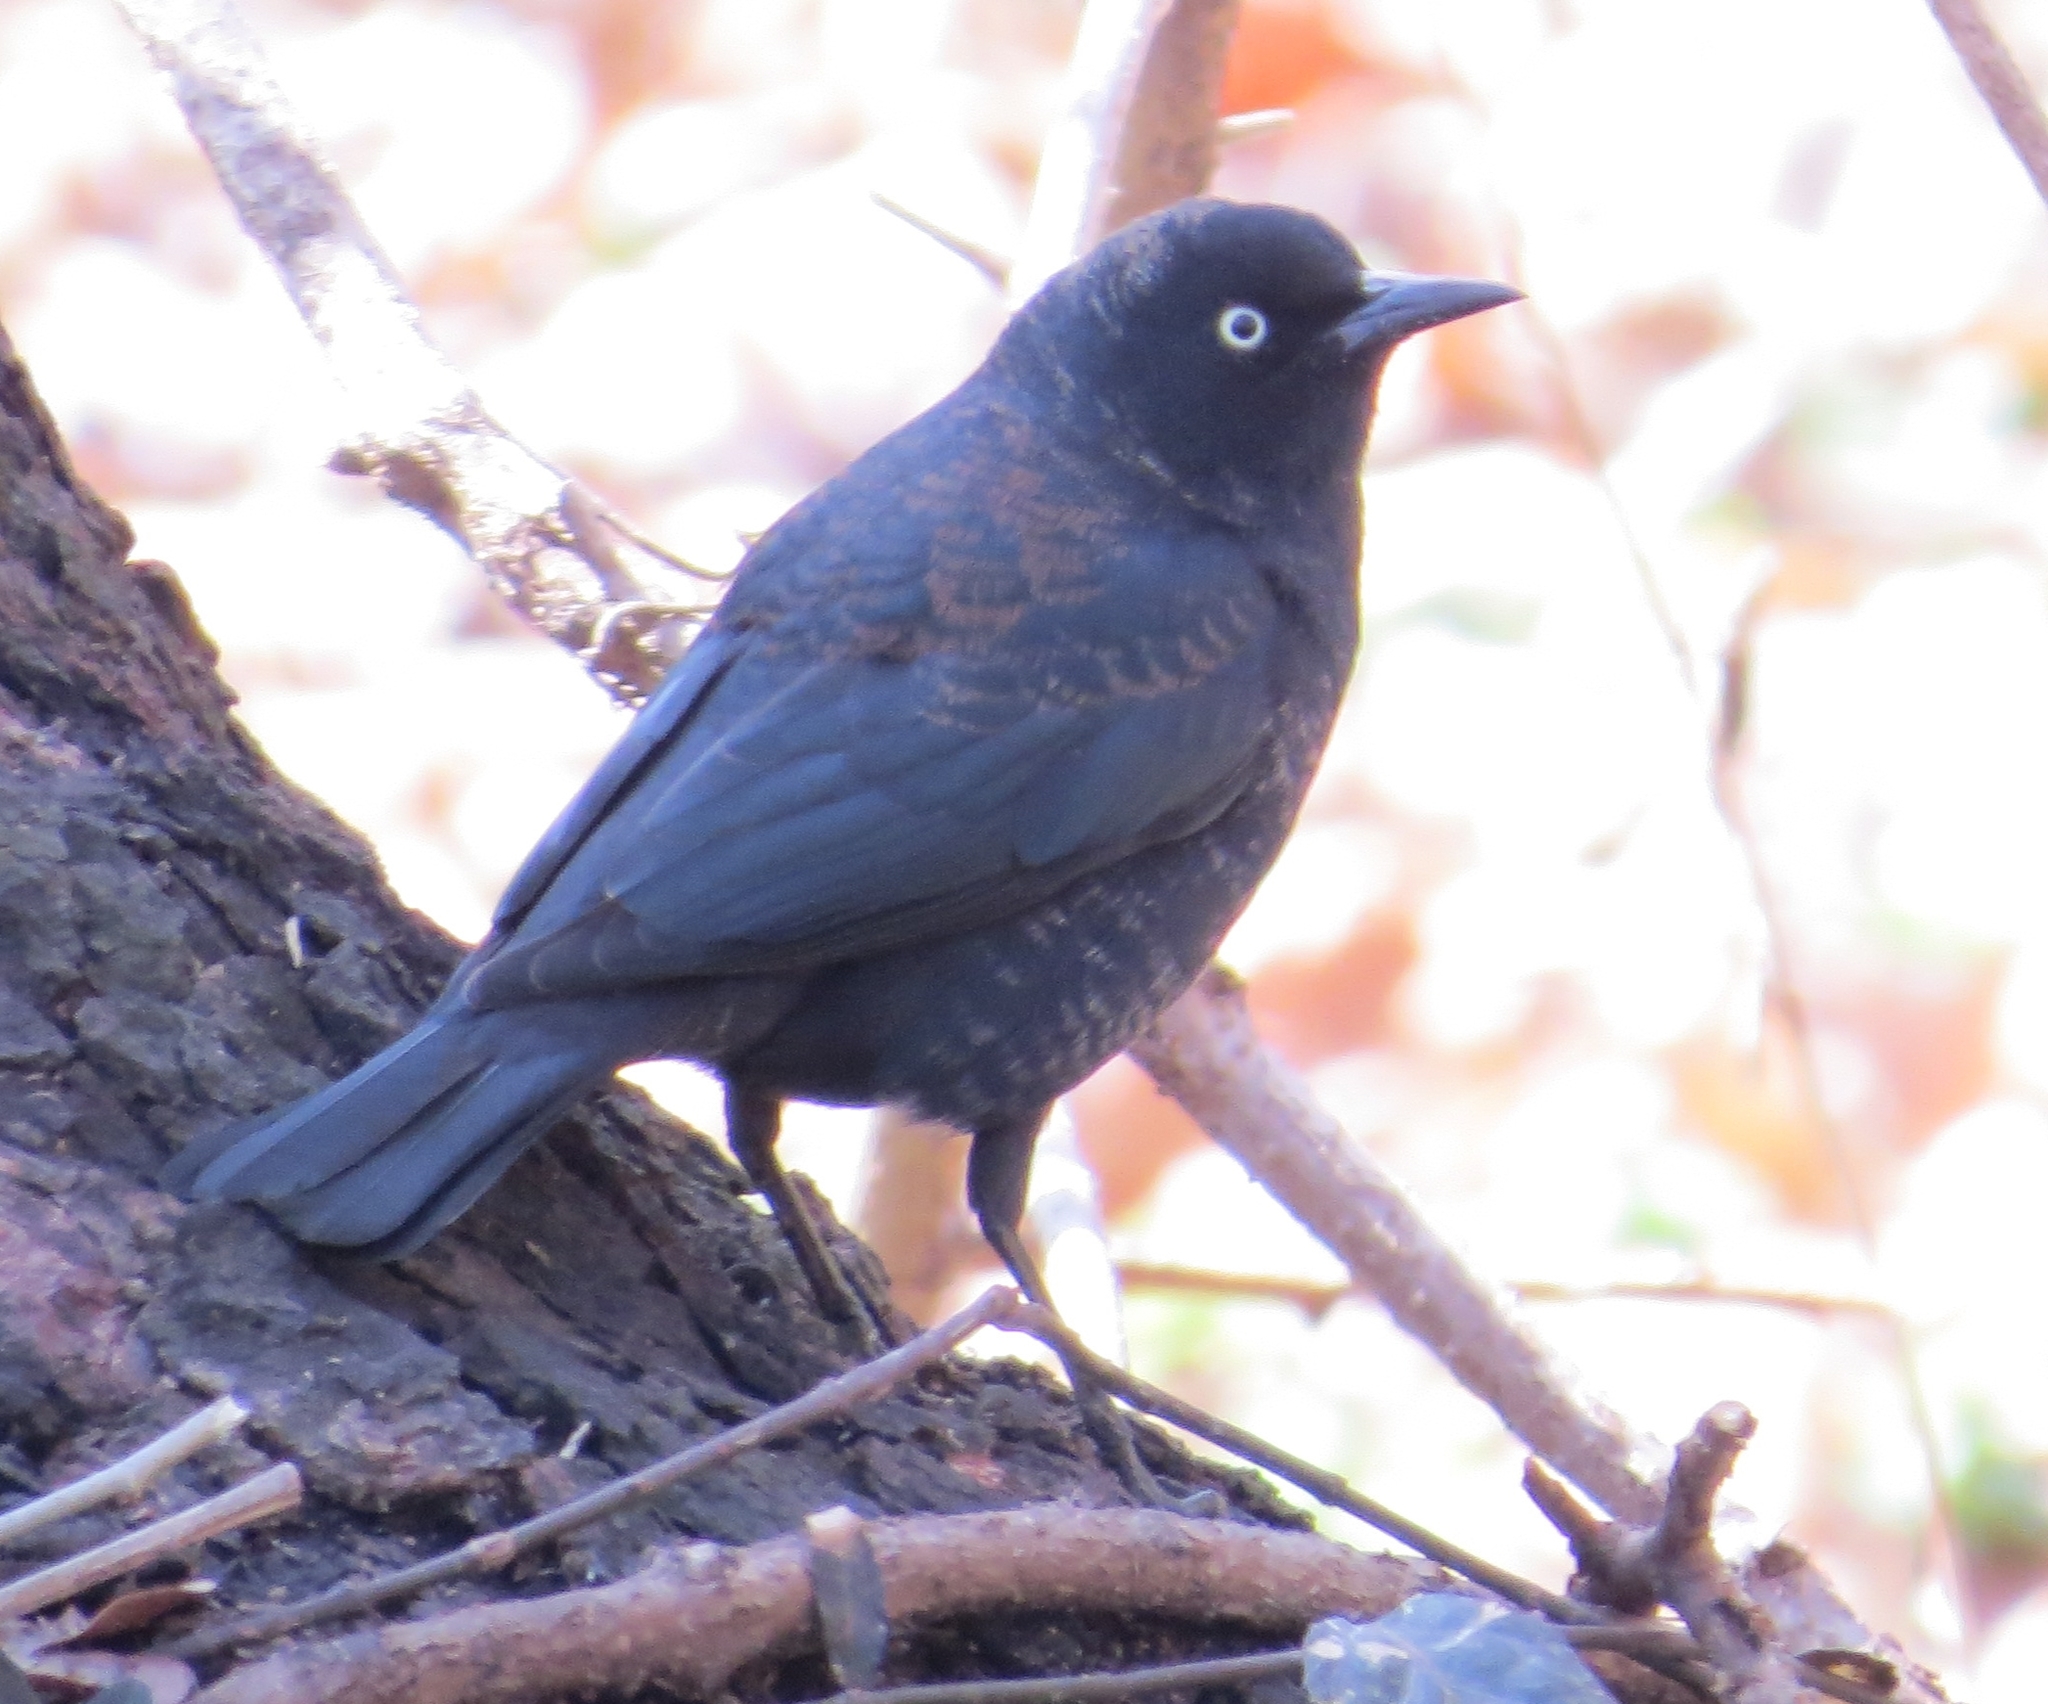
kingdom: Animalia
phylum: Chordata
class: Aves
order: Passeriformes
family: Icteridae
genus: Euphagus
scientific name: Euphagus carolinus
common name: Rusty blackbird
